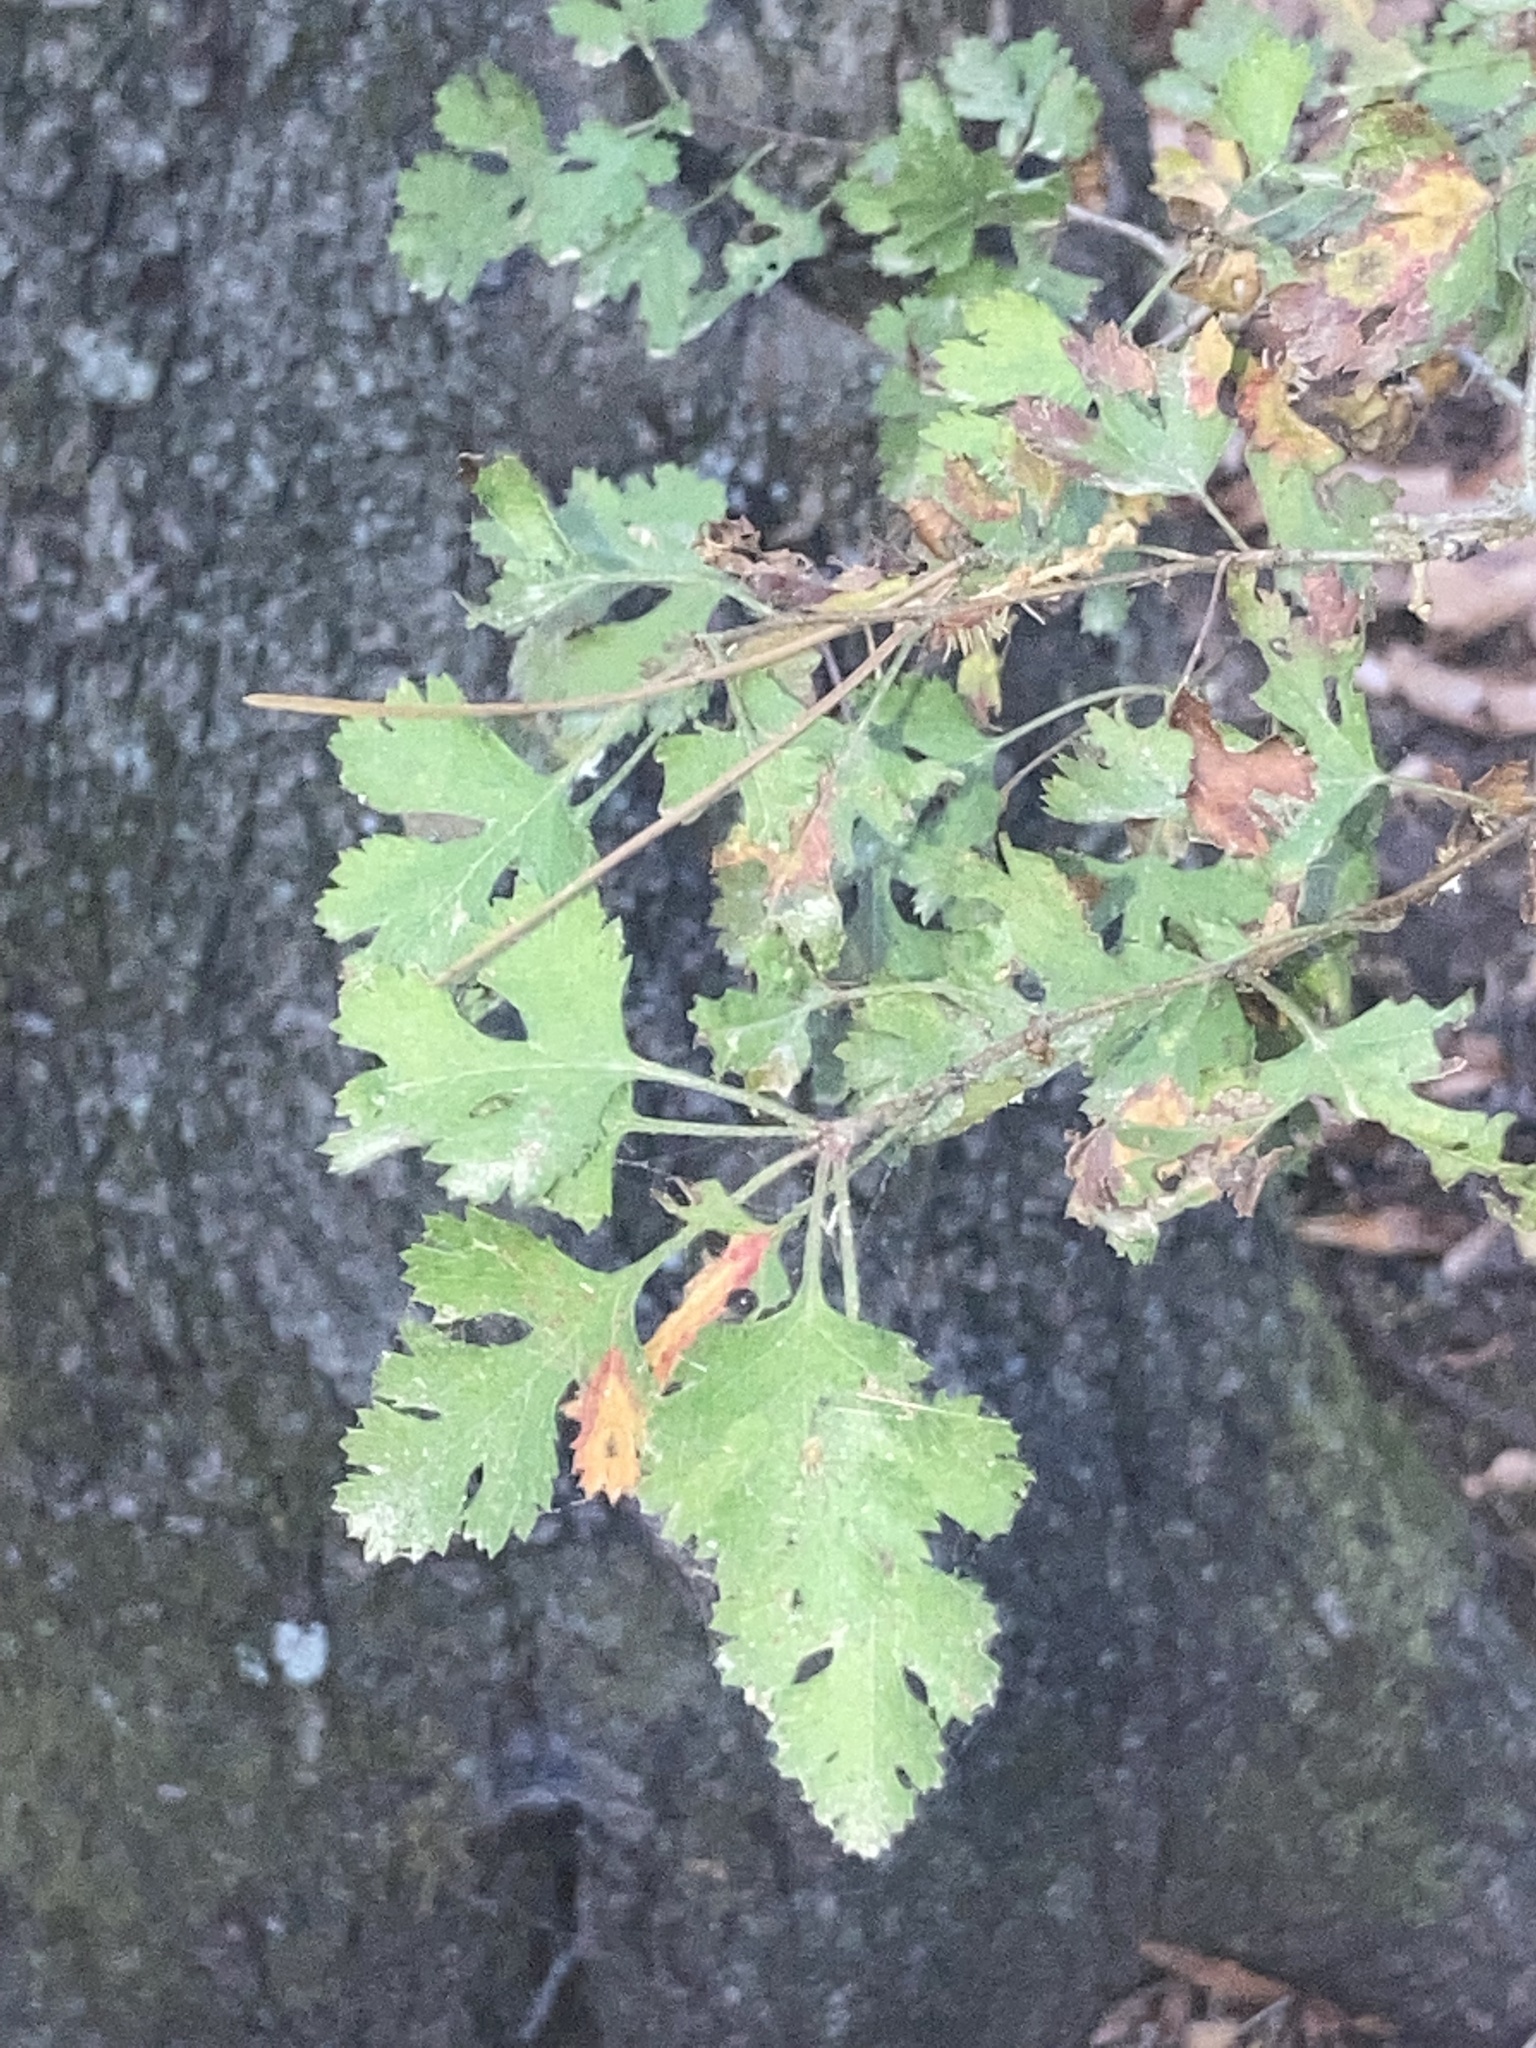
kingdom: Plantae
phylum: Tracheophyta
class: Magnoliopsida
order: Rosales
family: Rosaceae
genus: Crataegus
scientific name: Crataegus marshallii
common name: Parsley-hawthorn
